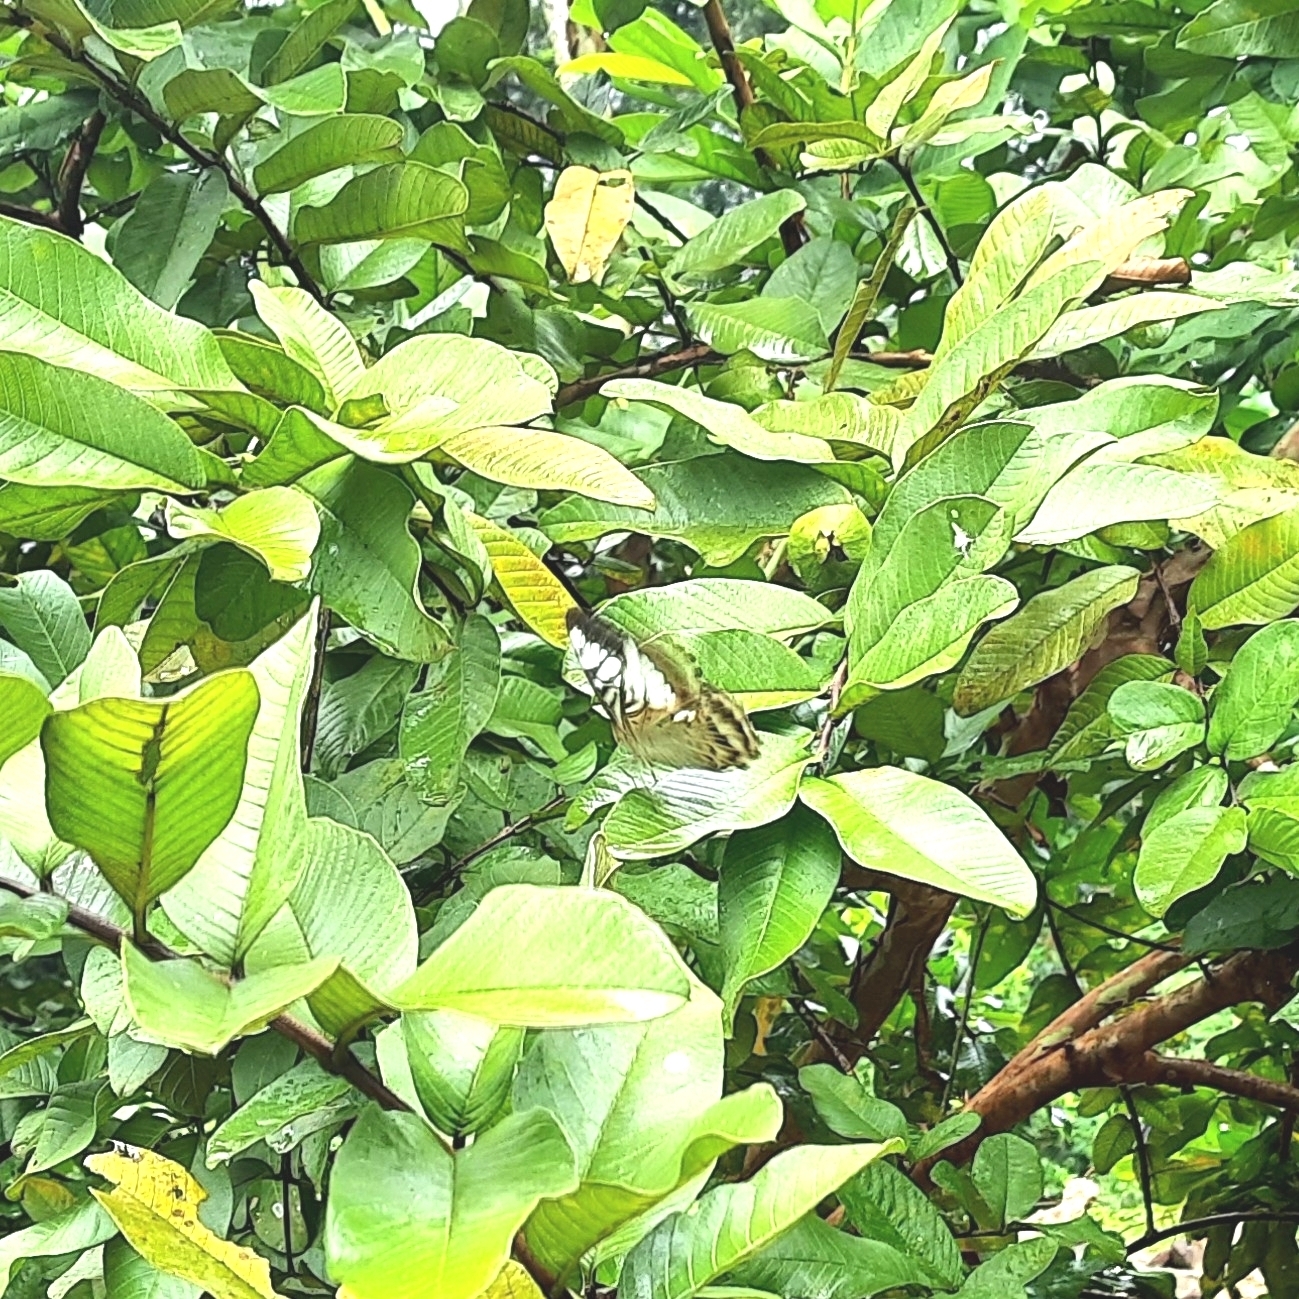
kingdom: Animalia
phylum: Arthropoda
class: Insecta
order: Lepidoptera
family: Nymphalidae
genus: Kallima
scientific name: Kallima sylvia
